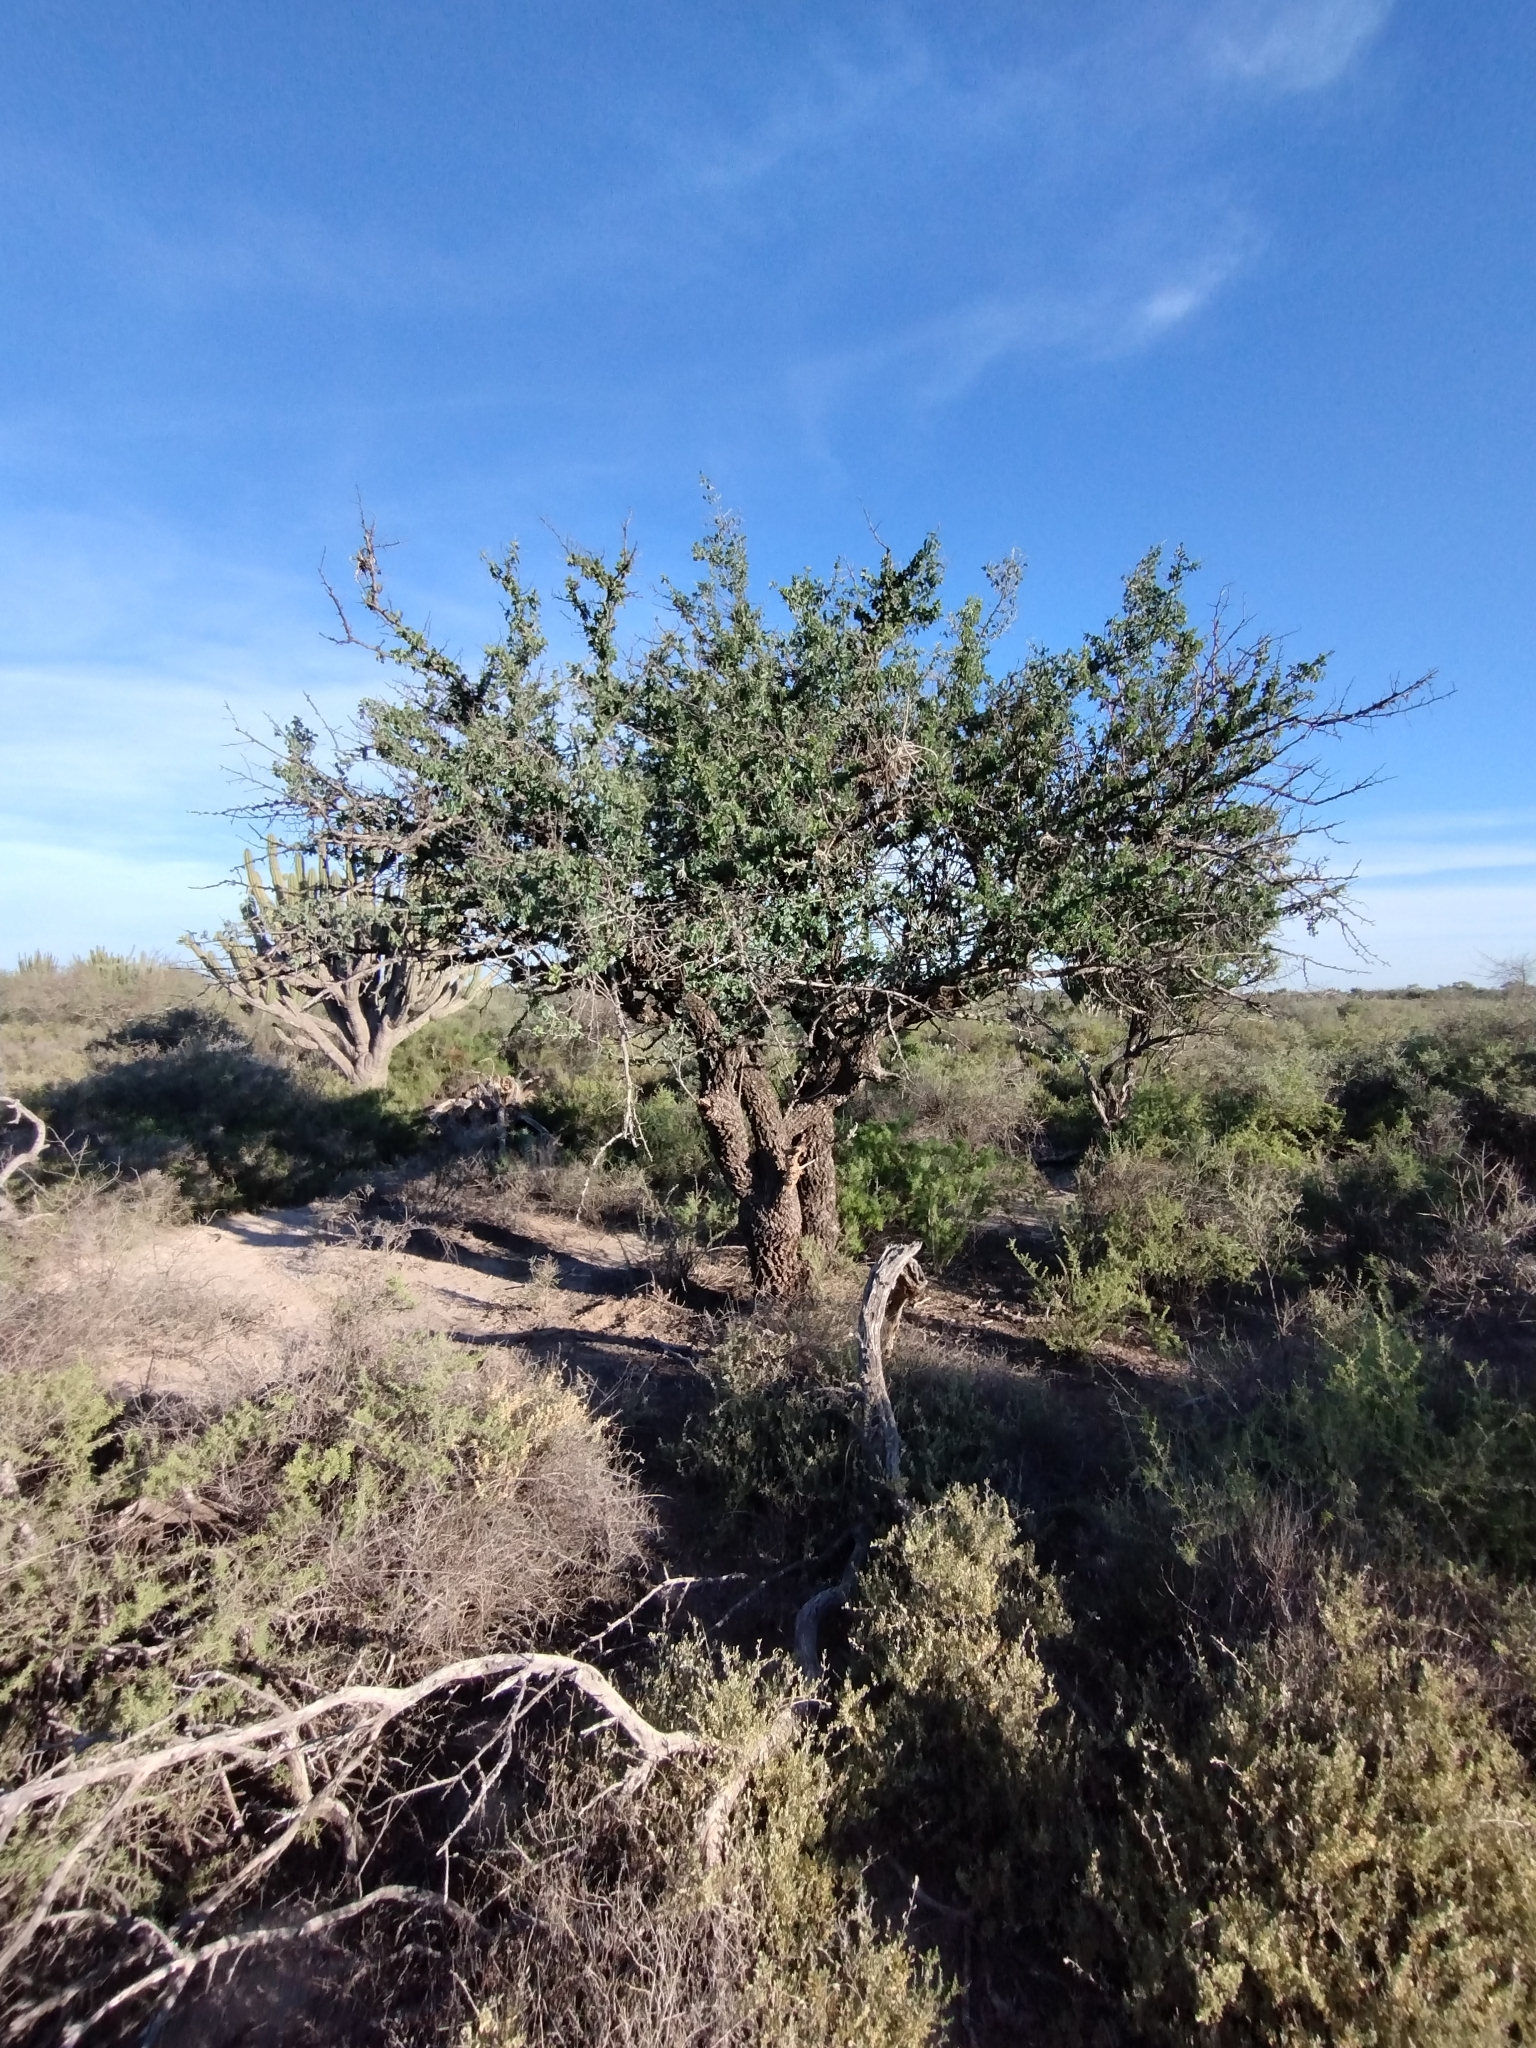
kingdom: Plantae
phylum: Tracheophyta
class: Magnoliopsida
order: Santalales
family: Ximeniaceae
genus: Ximenia
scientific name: Ximenia americana
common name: Tallowwood
